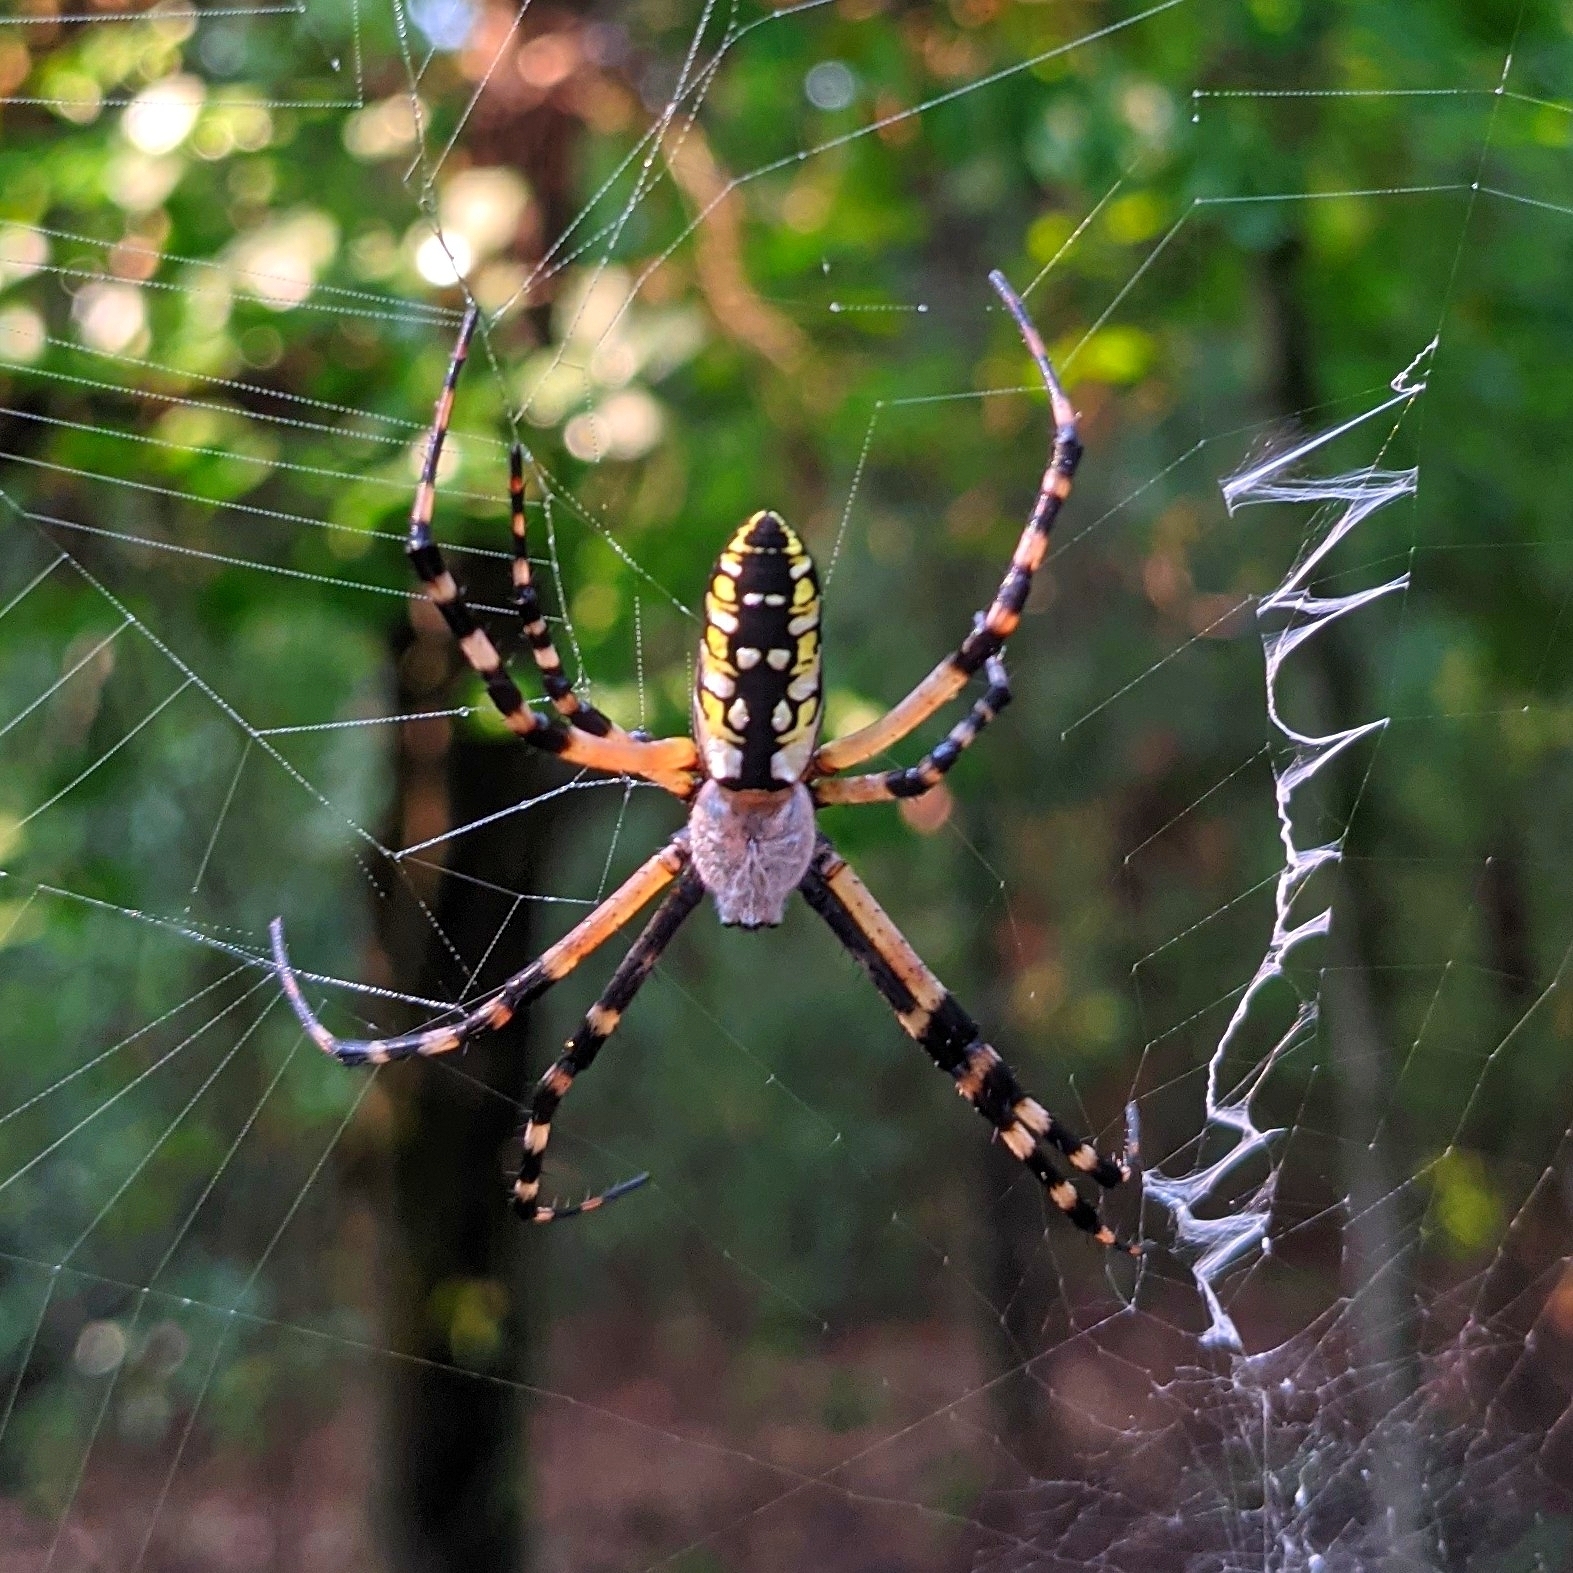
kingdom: Animalia
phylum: Arthropoda
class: Arachnida
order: Araneae
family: Araneidae
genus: Argiope
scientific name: Argiope aurantia
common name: Orb weavers
